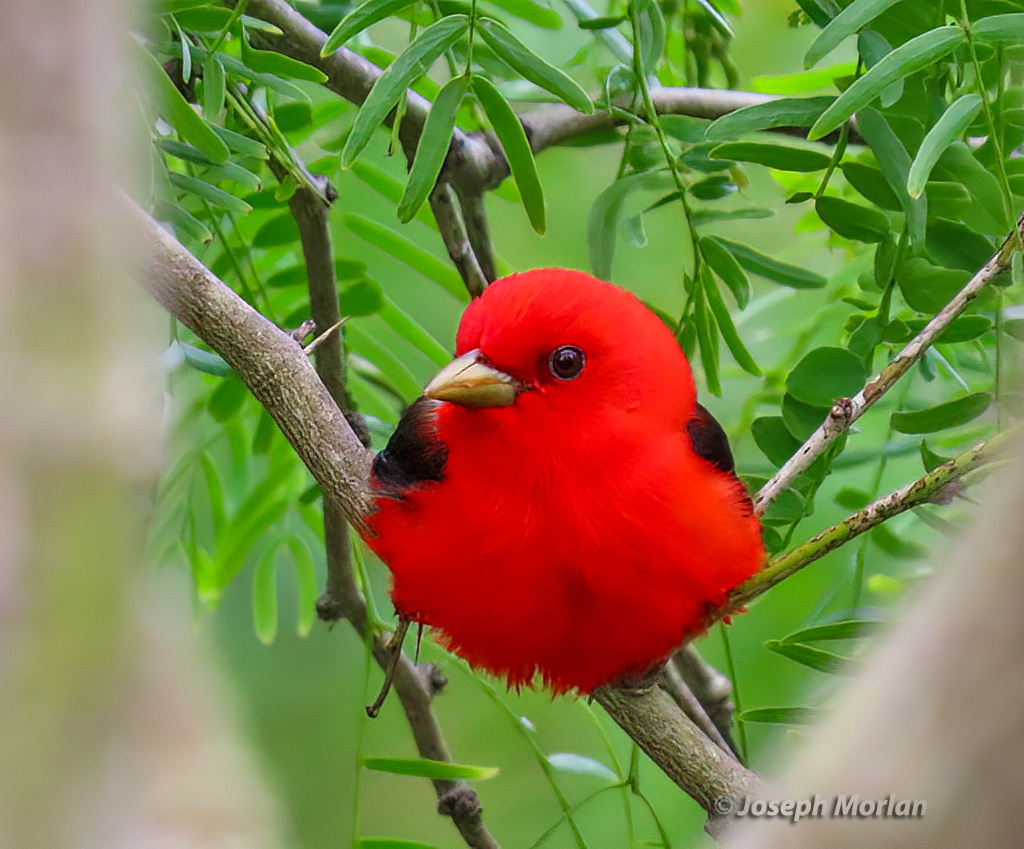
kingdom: Animalia
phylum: Chordata
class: Aves
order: Passeriformes
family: Cardinalidae
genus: Piranga
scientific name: Piranga olivacea
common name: Scarlet tanager
